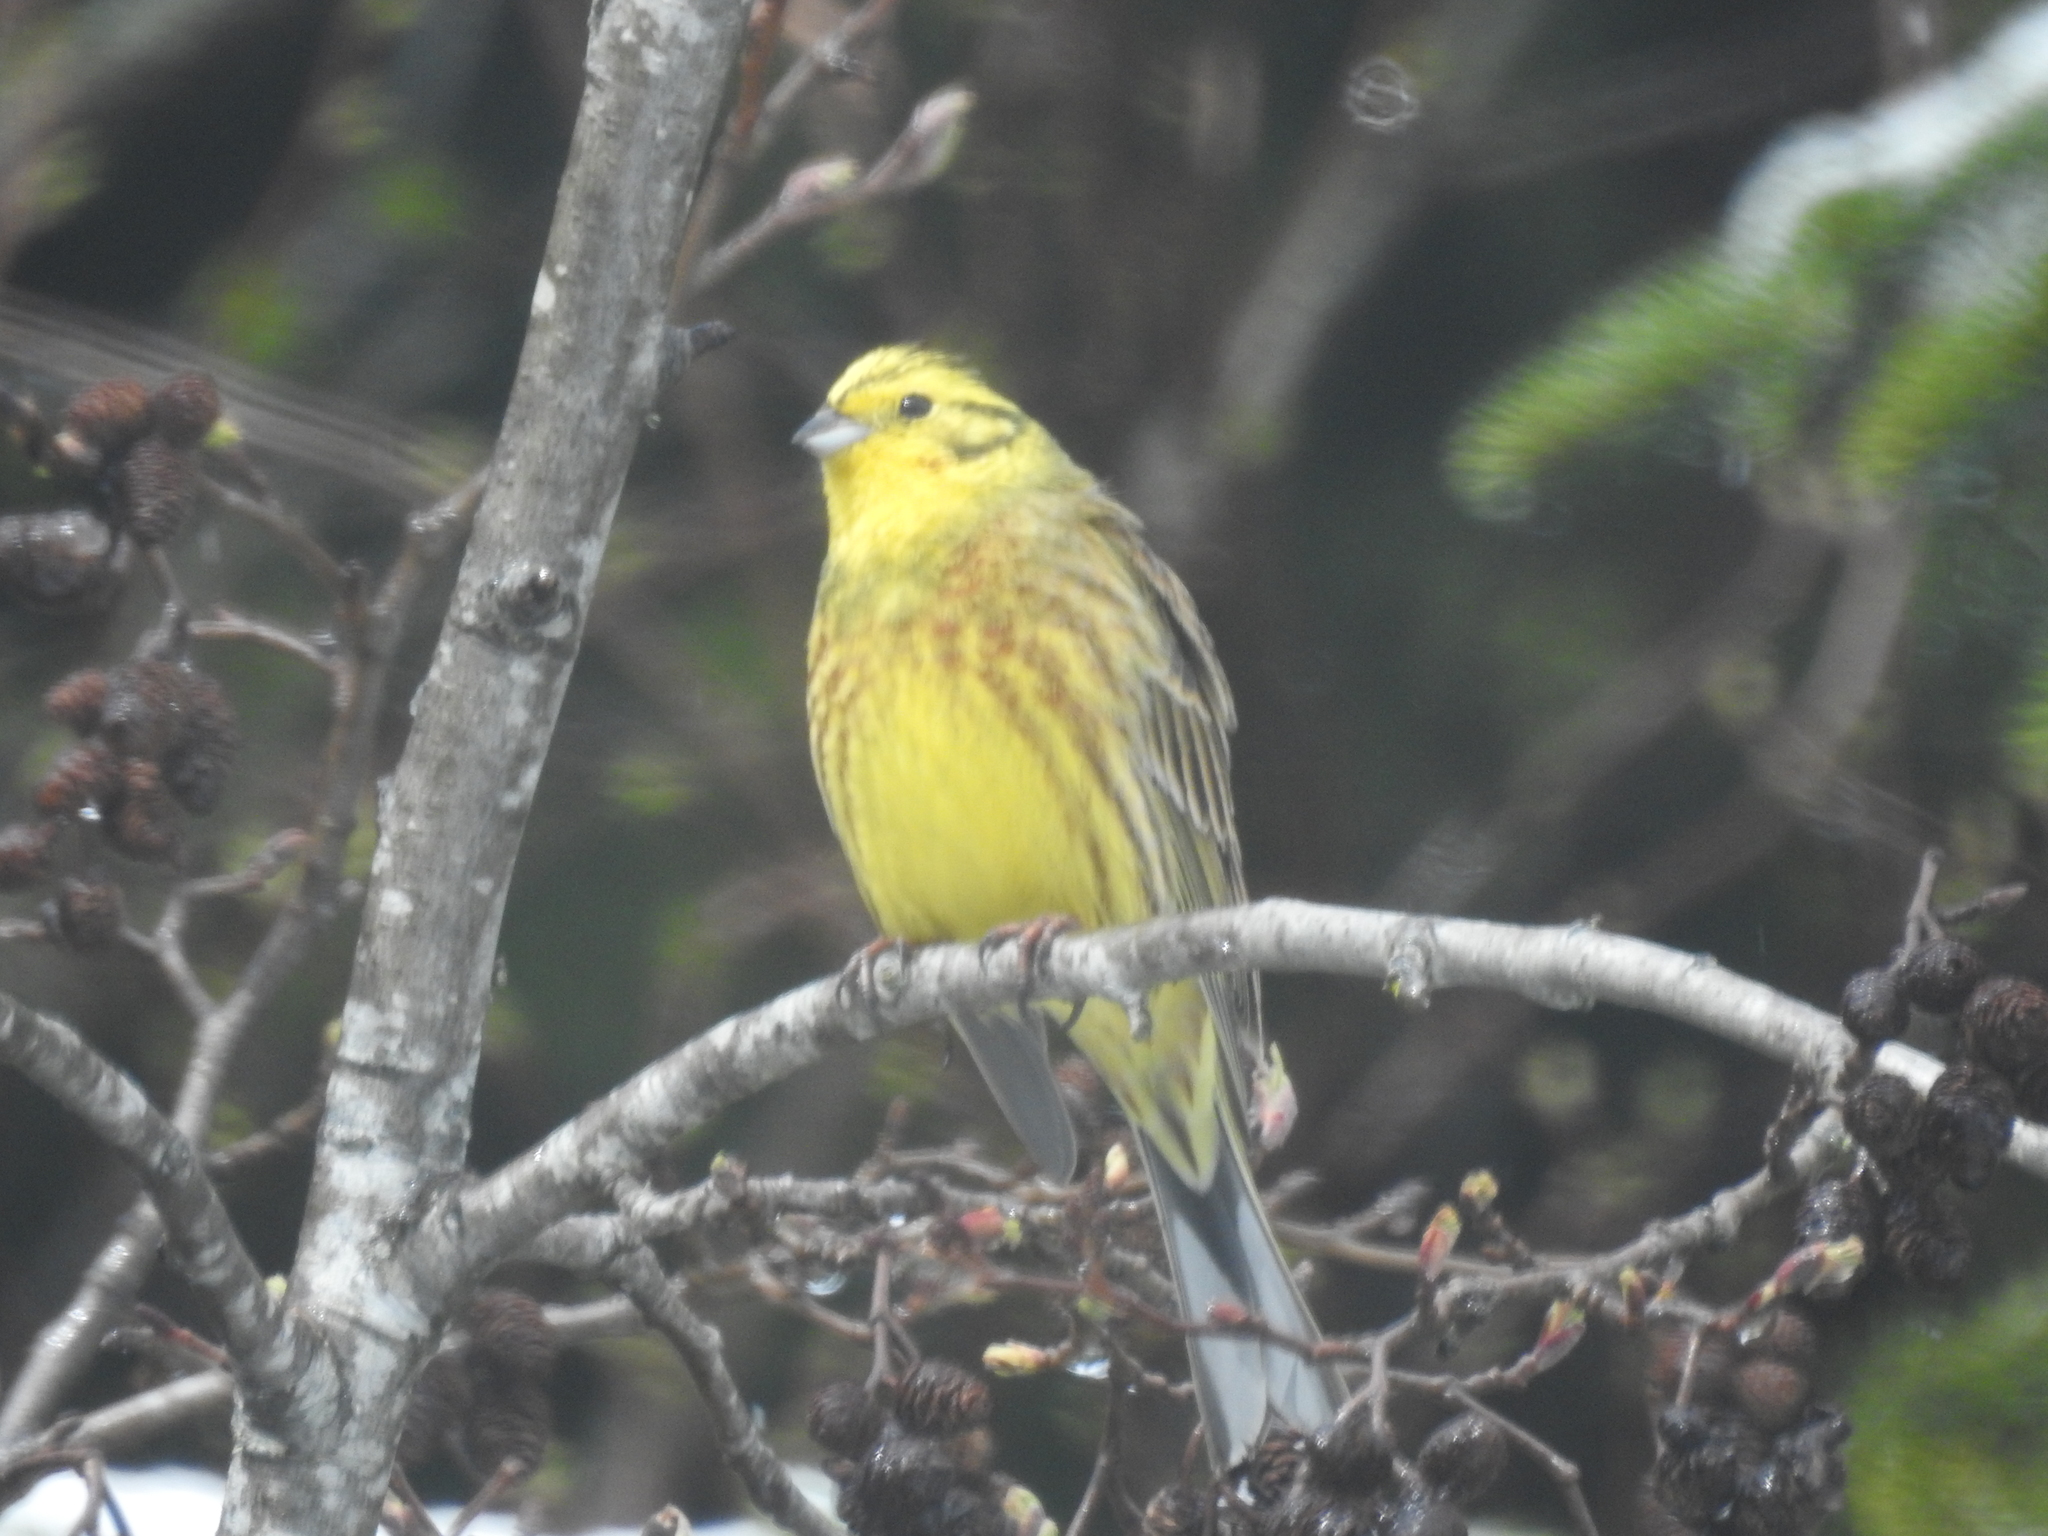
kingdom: Animalia
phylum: Chordata
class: Aves
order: Passeriformes
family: Emberizidae
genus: Emberiza
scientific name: Emberiza citrinella
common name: Yellowhammer
